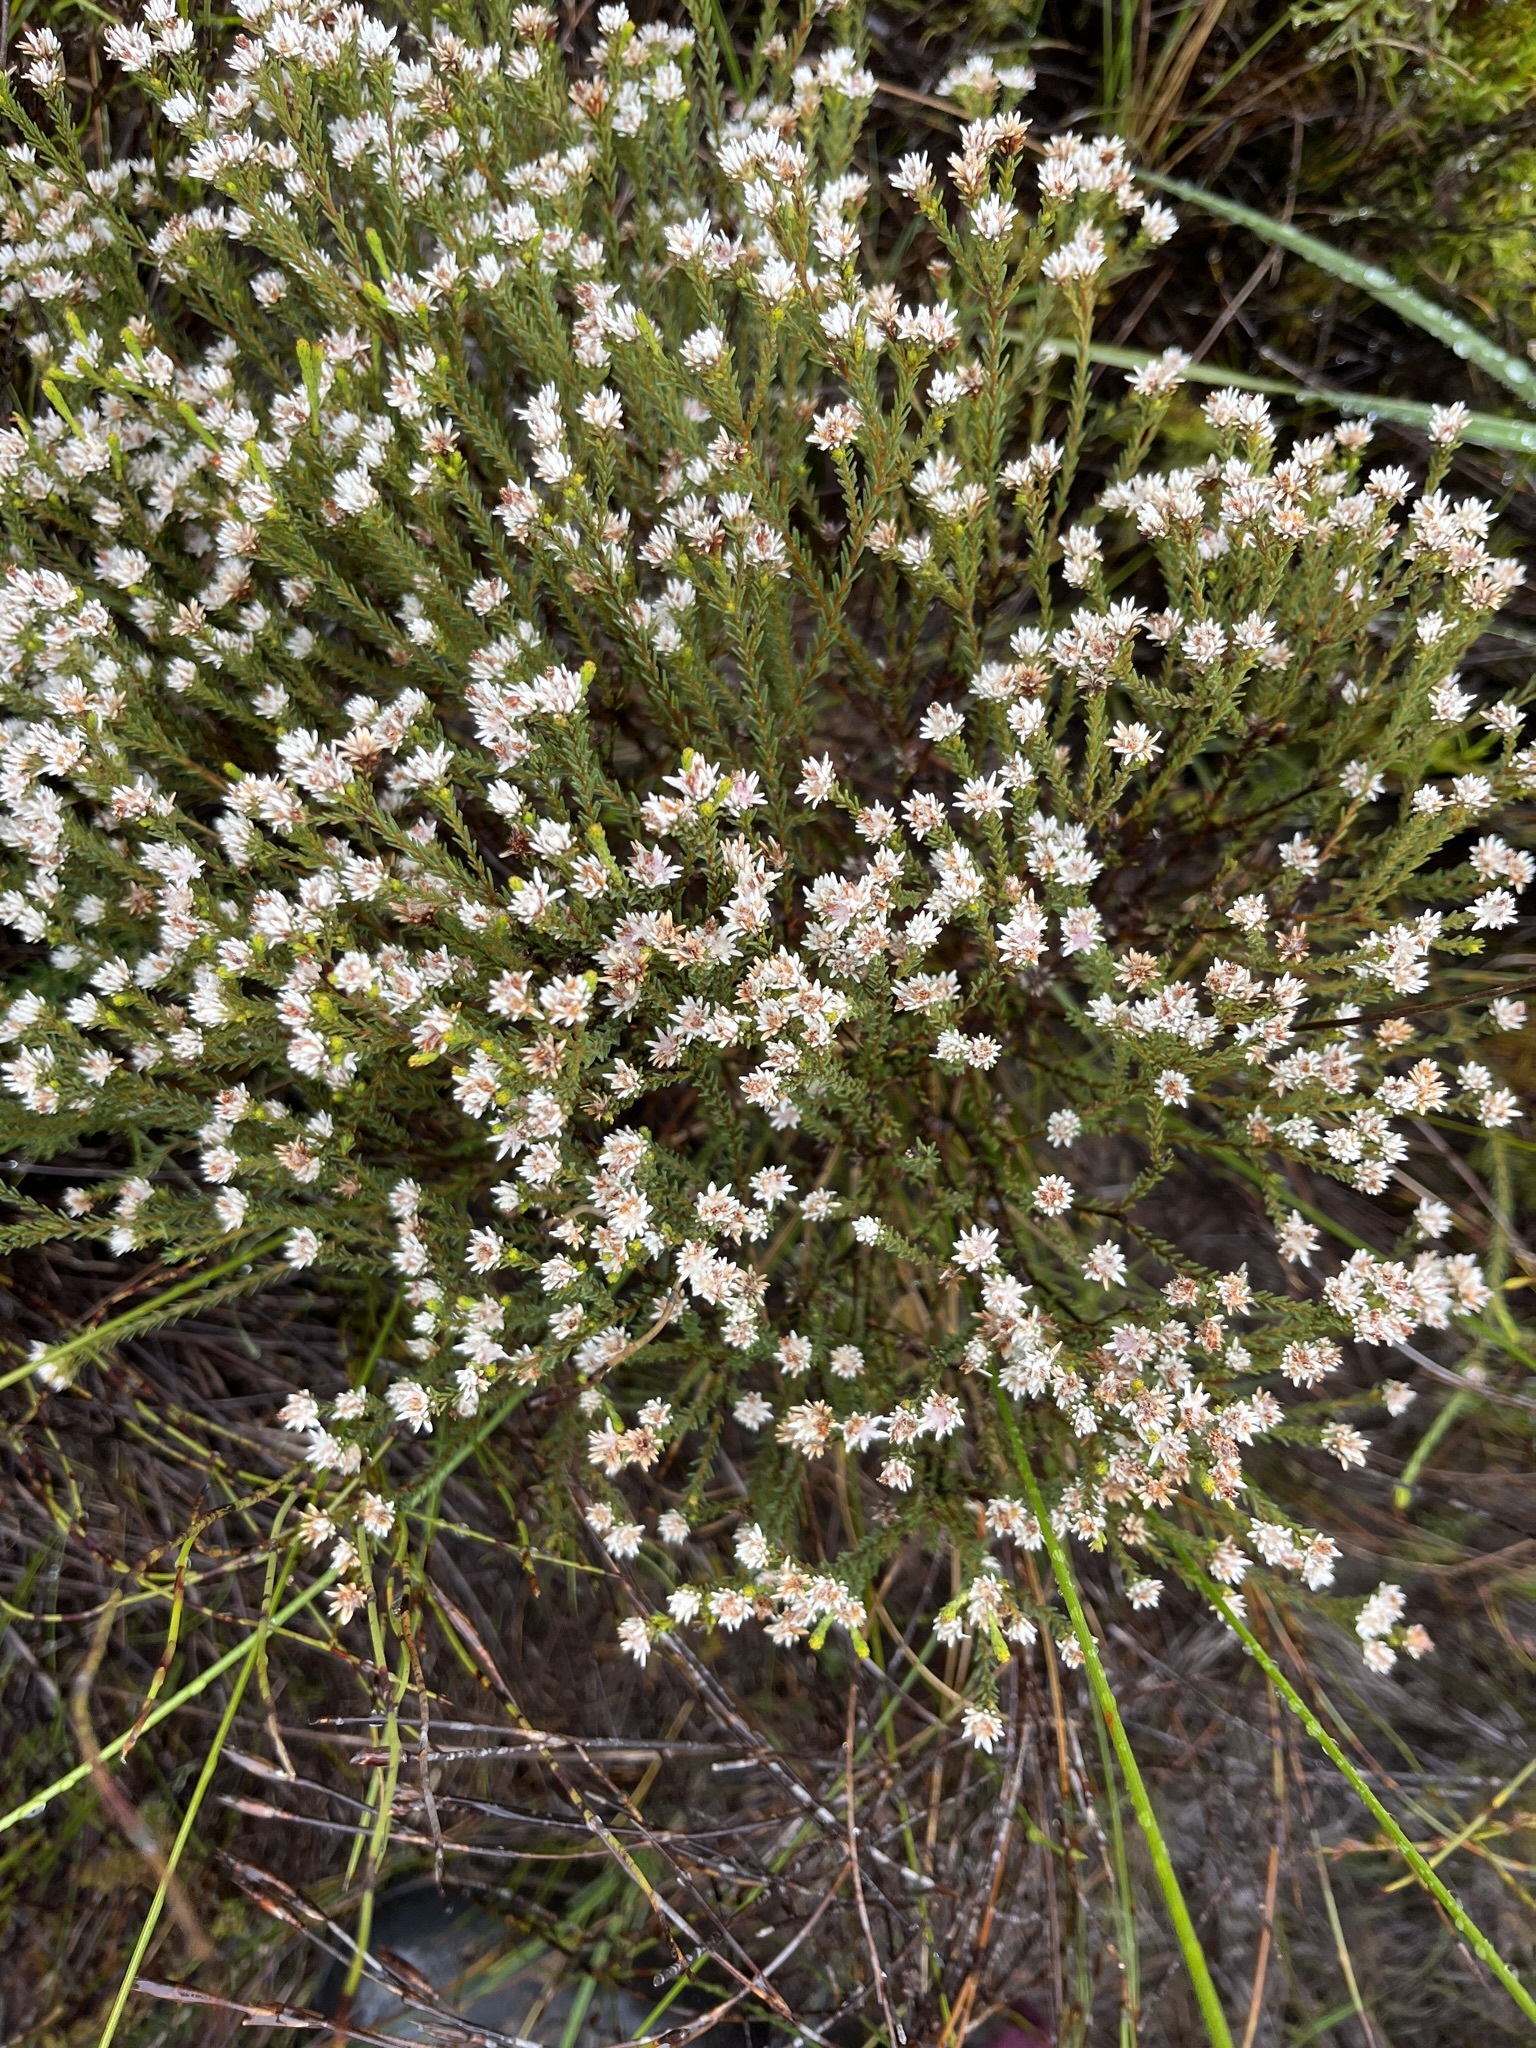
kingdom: Plantae
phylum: Tracheophyta
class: Magnoliopsida
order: Bruniales
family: Bruniaceae
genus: Staavia
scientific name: Staavia radiata
